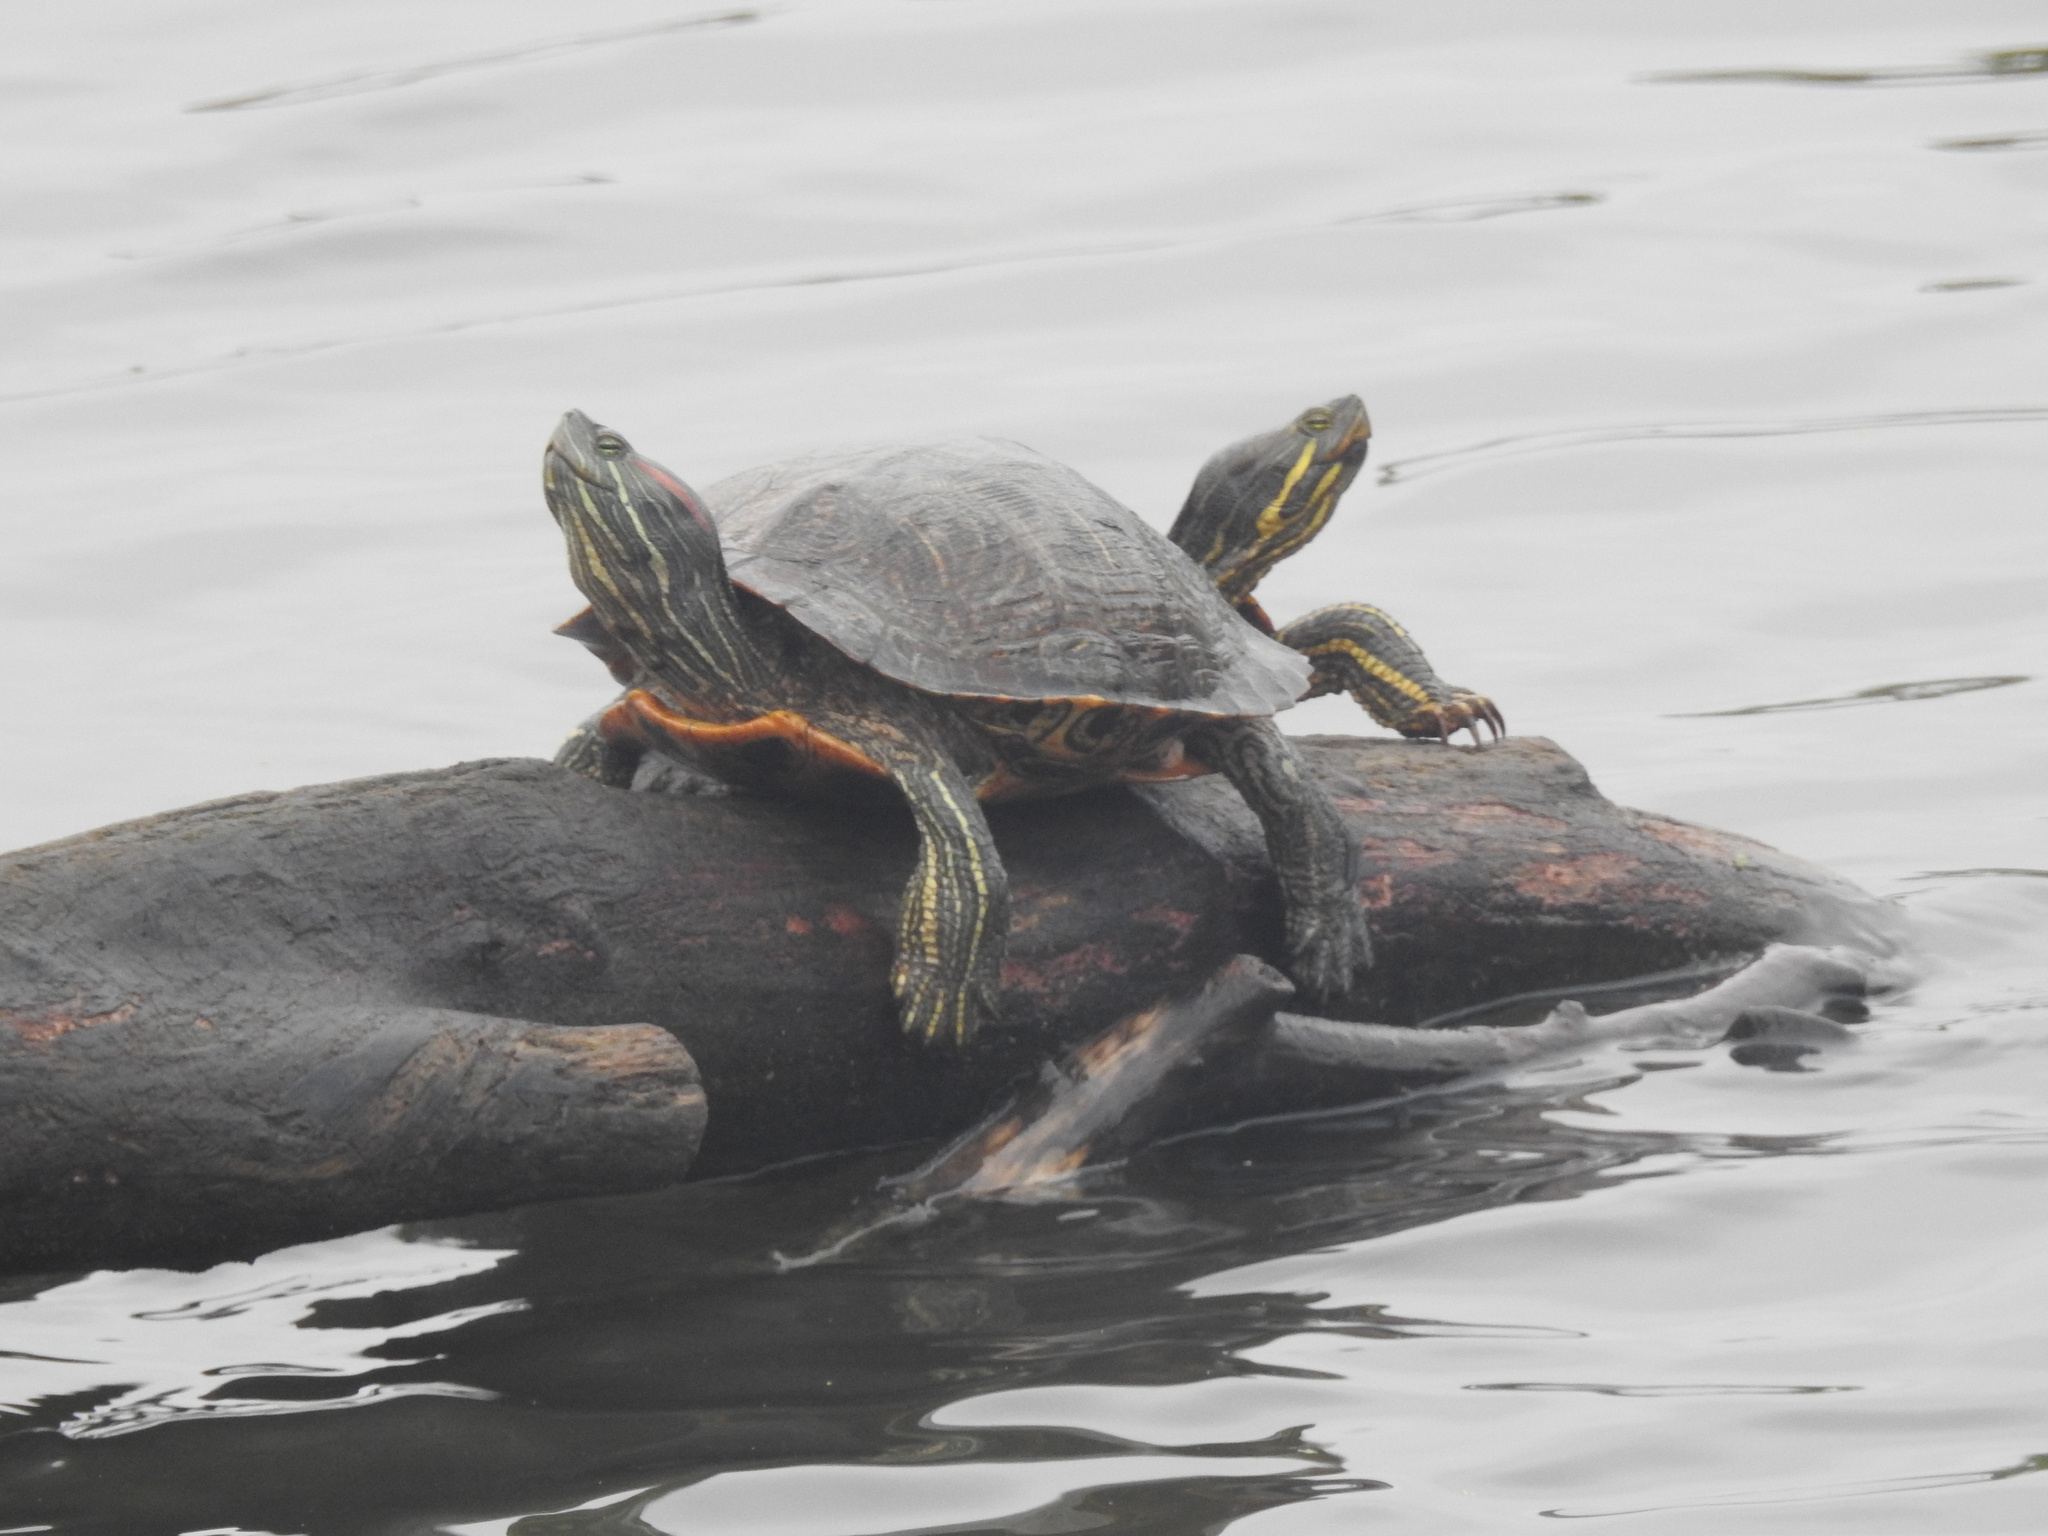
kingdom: Animalia
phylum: Chordata
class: Testudines
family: Emydidae
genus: Trachemys
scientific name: Trachemys scripta
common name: Slider
